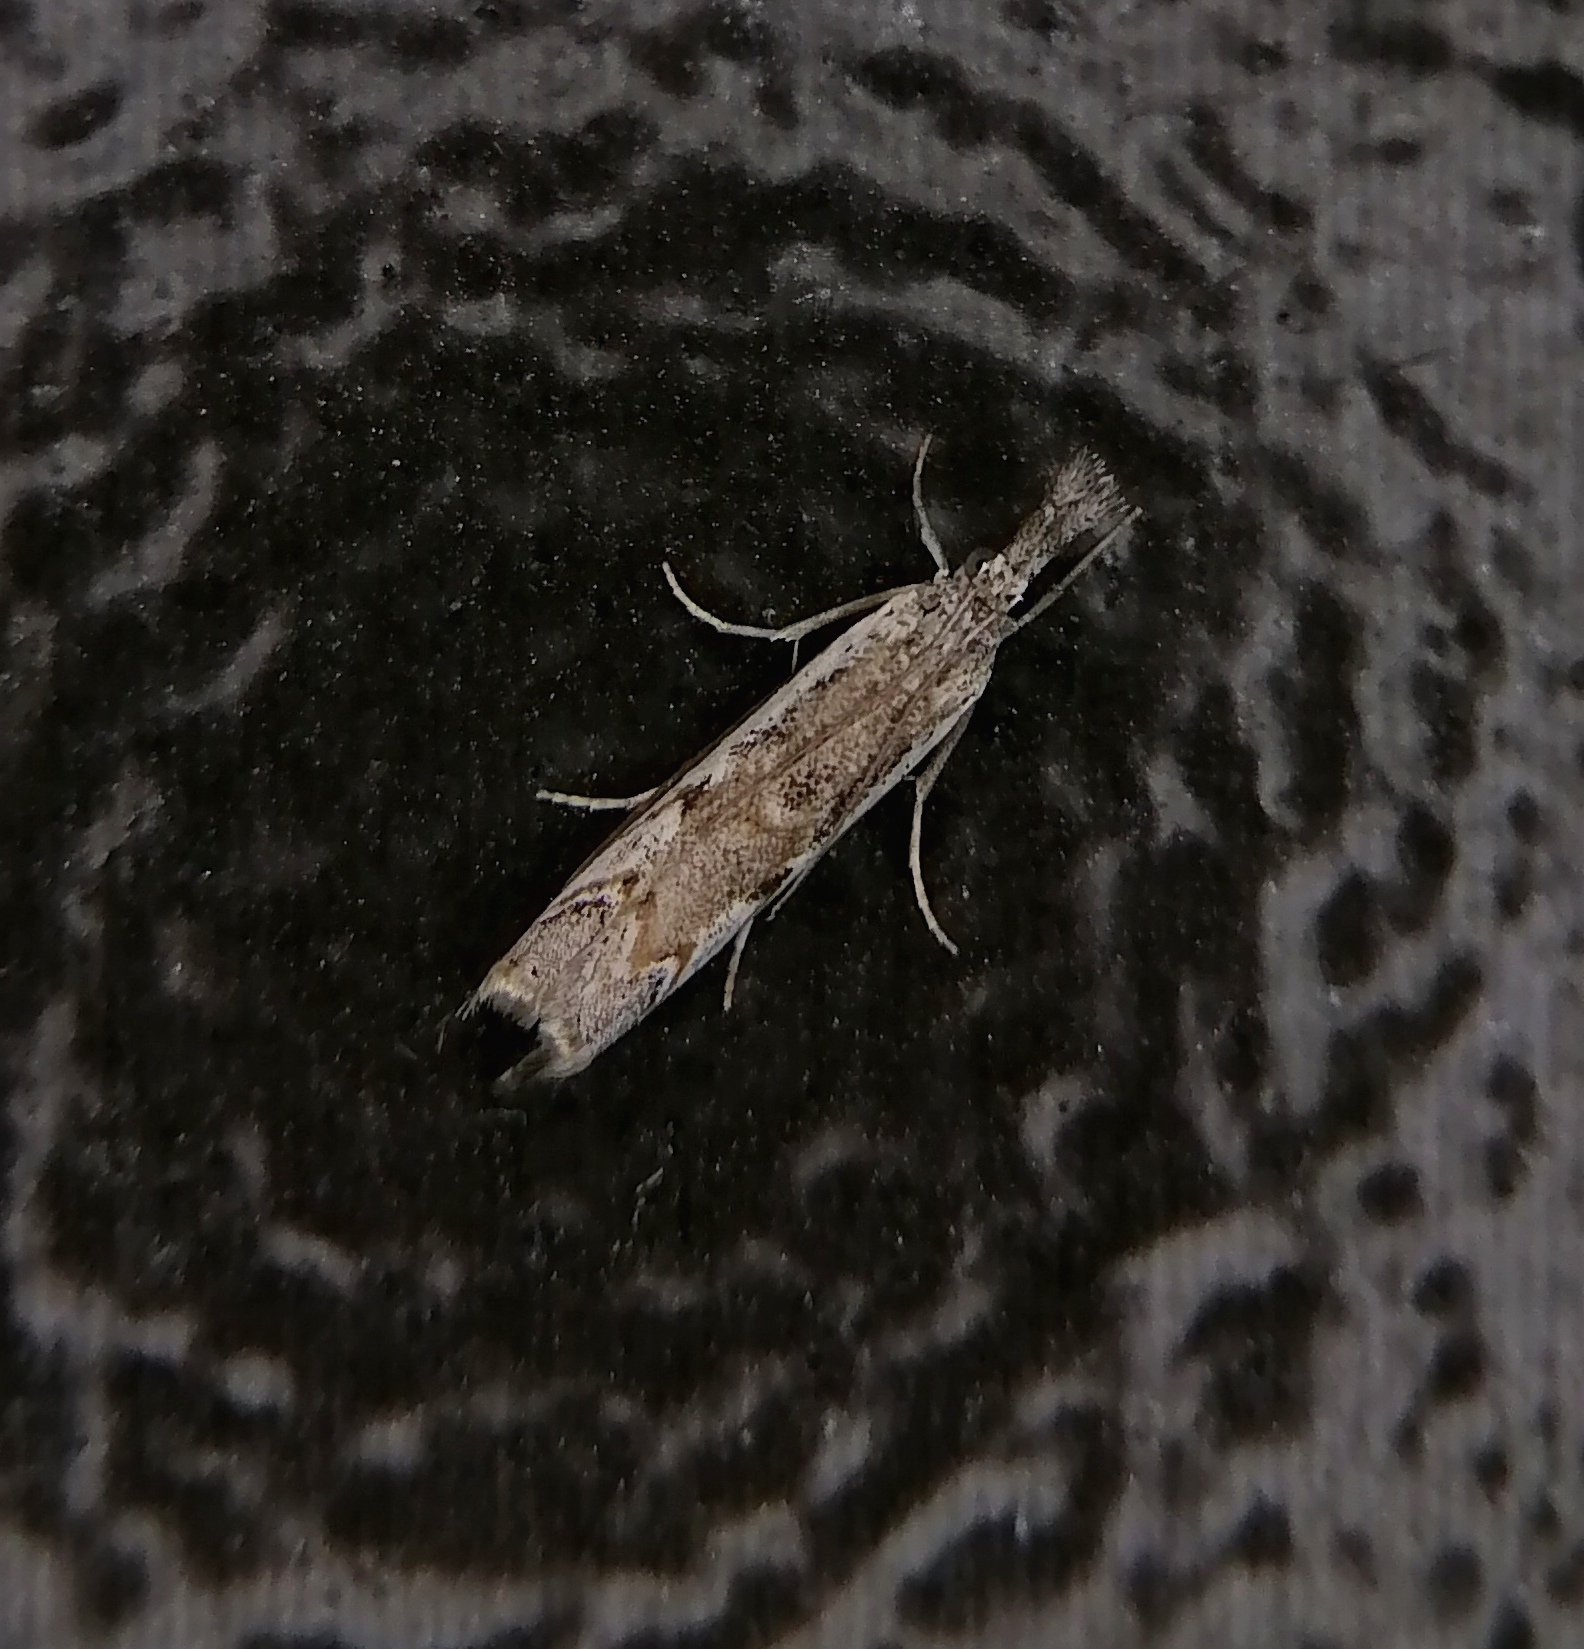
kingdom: Animalia
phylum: Arthropoda
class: Insecta
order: Lepidoptera
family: Crambidae
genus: Platytes
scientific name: Platytes alpinella
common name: Hook-tipped grass-veneer
